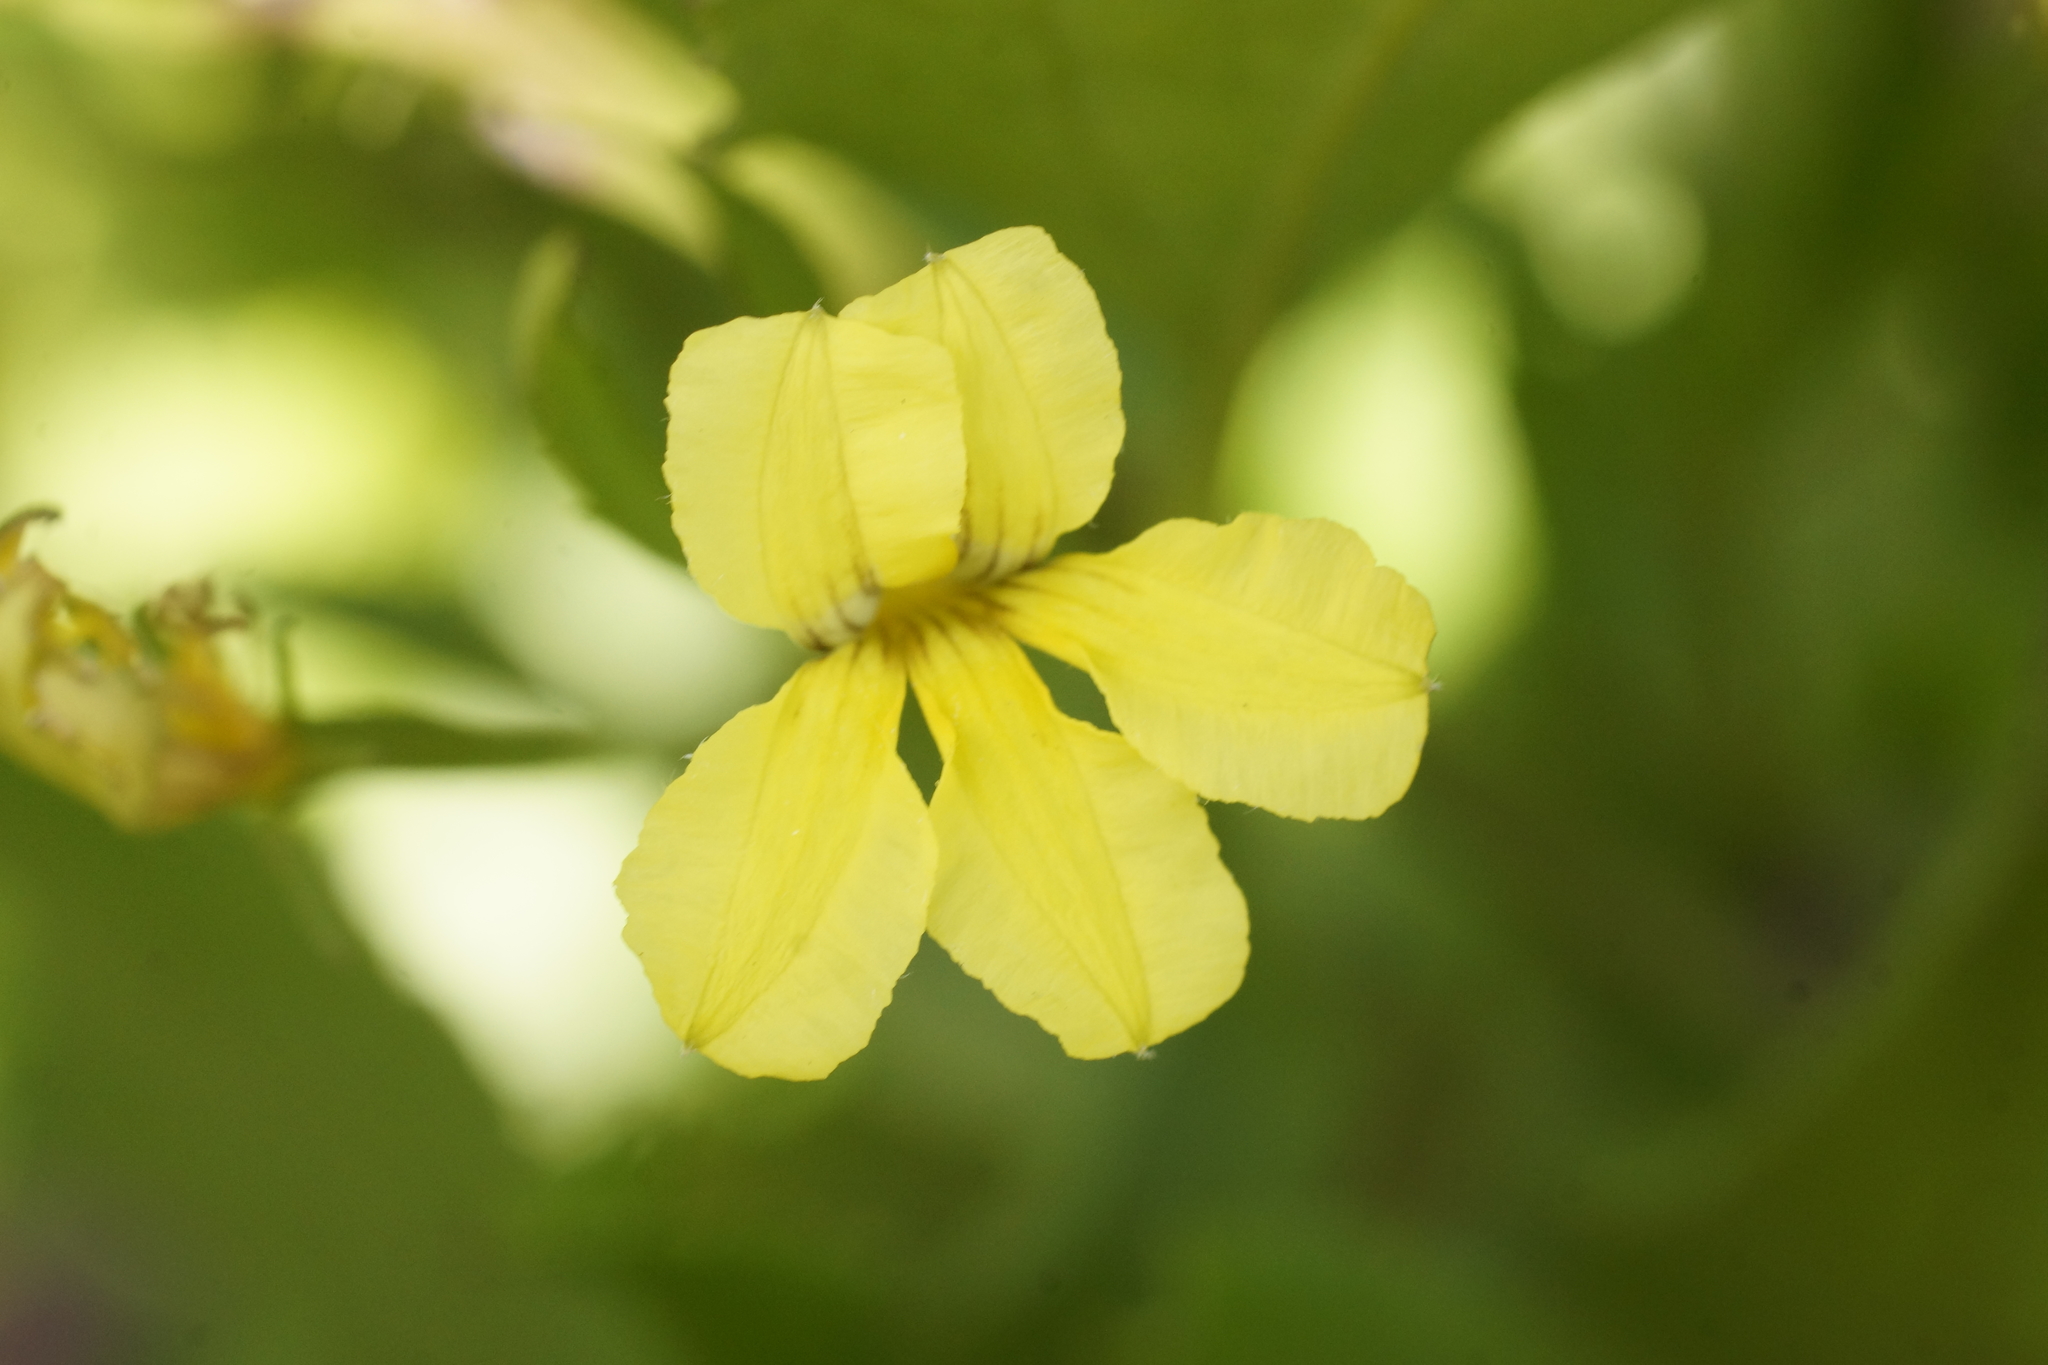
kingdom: Plantae
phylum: Tracheophyta
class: Magnoliopsida
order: Asterales
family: Goodeniaceae
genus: Goodenia
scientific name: Goodenia ovata
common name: Hop goodenia
